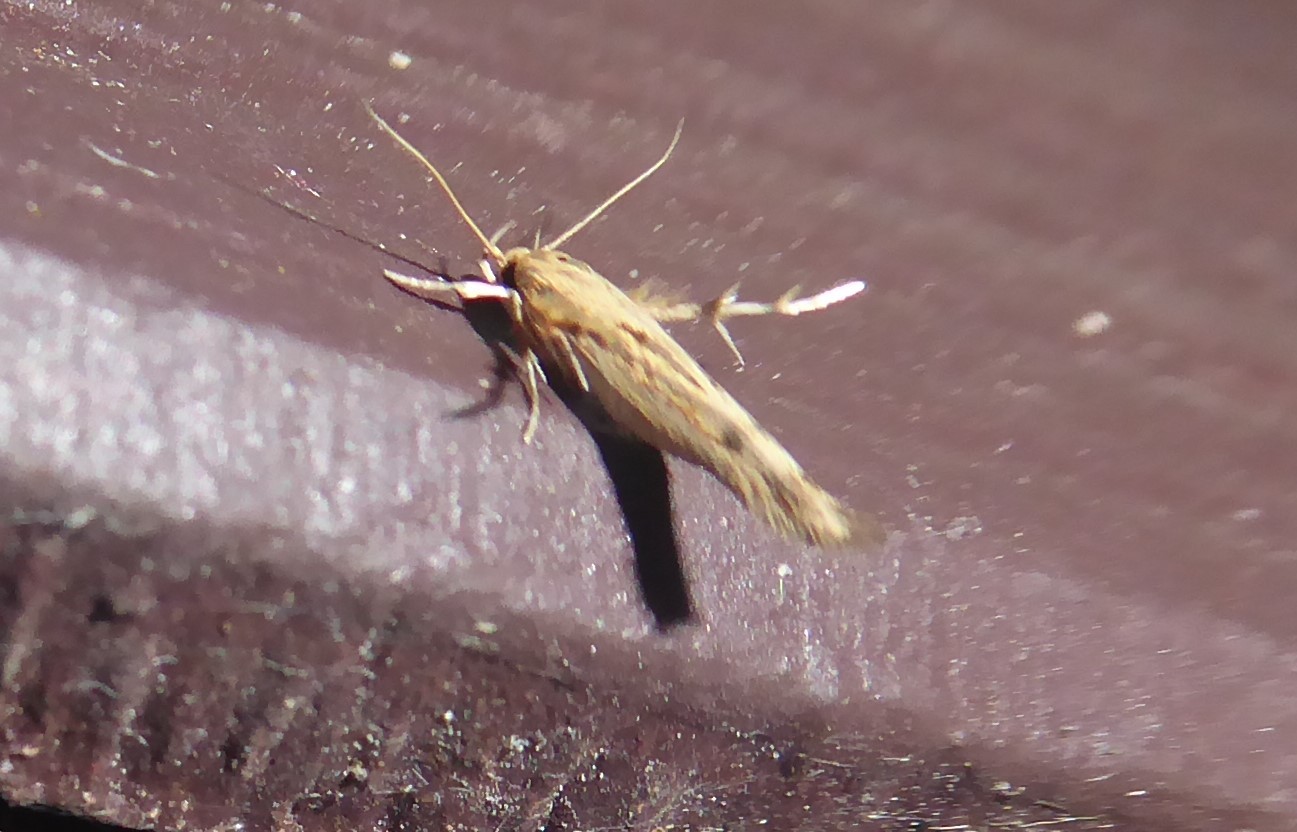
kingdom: Animalia
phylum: Arthropoda
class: Insecta
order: Lepidoptera
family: Stathmopodidae
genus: Stathmopoda
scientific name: Stathmopoda aposema
